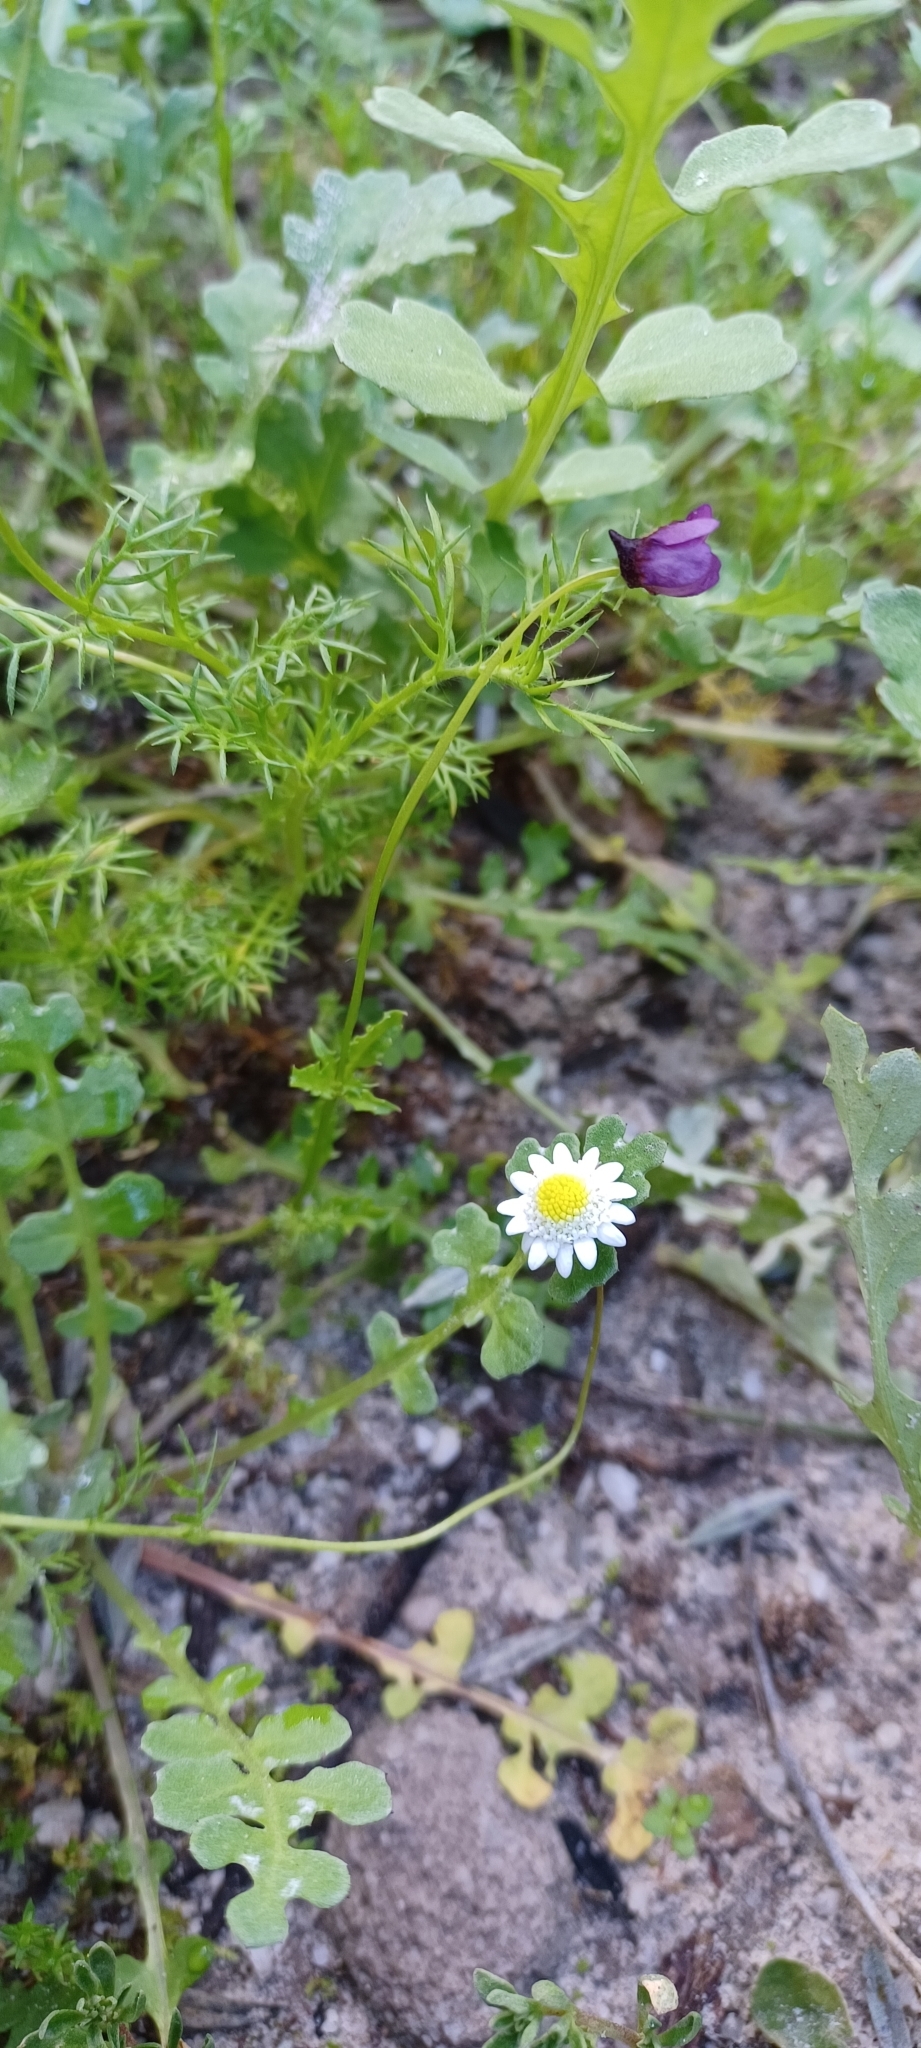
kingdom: Plantae
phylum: Tracheophyta
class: Magnoliopsida
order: Asterales
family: Asteraceae
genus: Cotula
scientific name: Cotula turbinata
